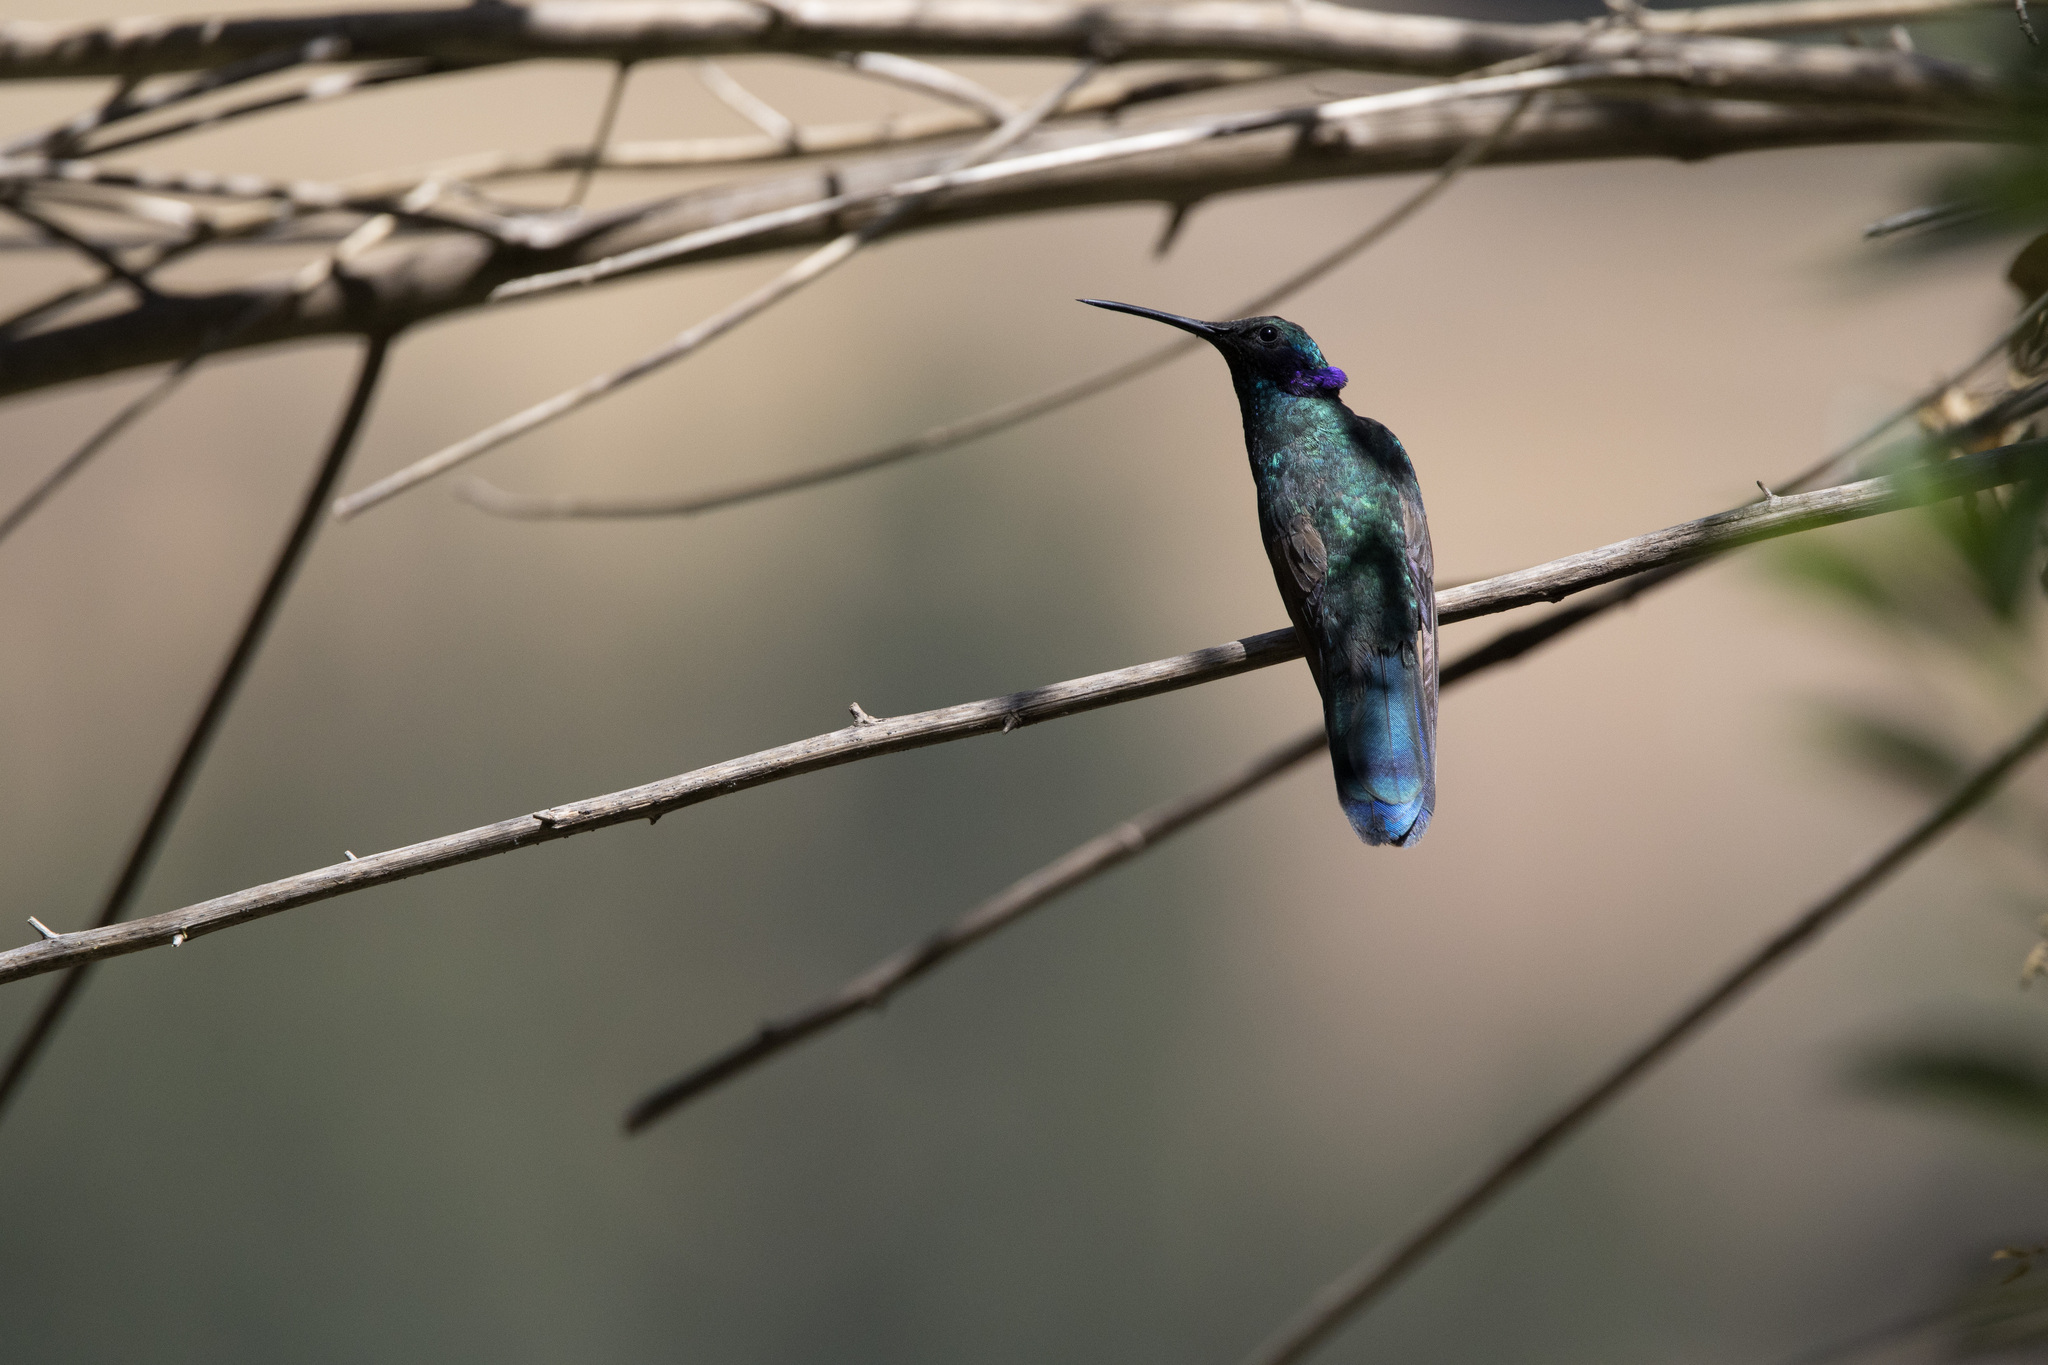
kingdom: Animalia
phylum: Chordata
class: Aves
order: Apodiformes
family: Trochilidae
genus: Colibri
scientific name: Colibri coruscans
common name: Sparkling violetear
